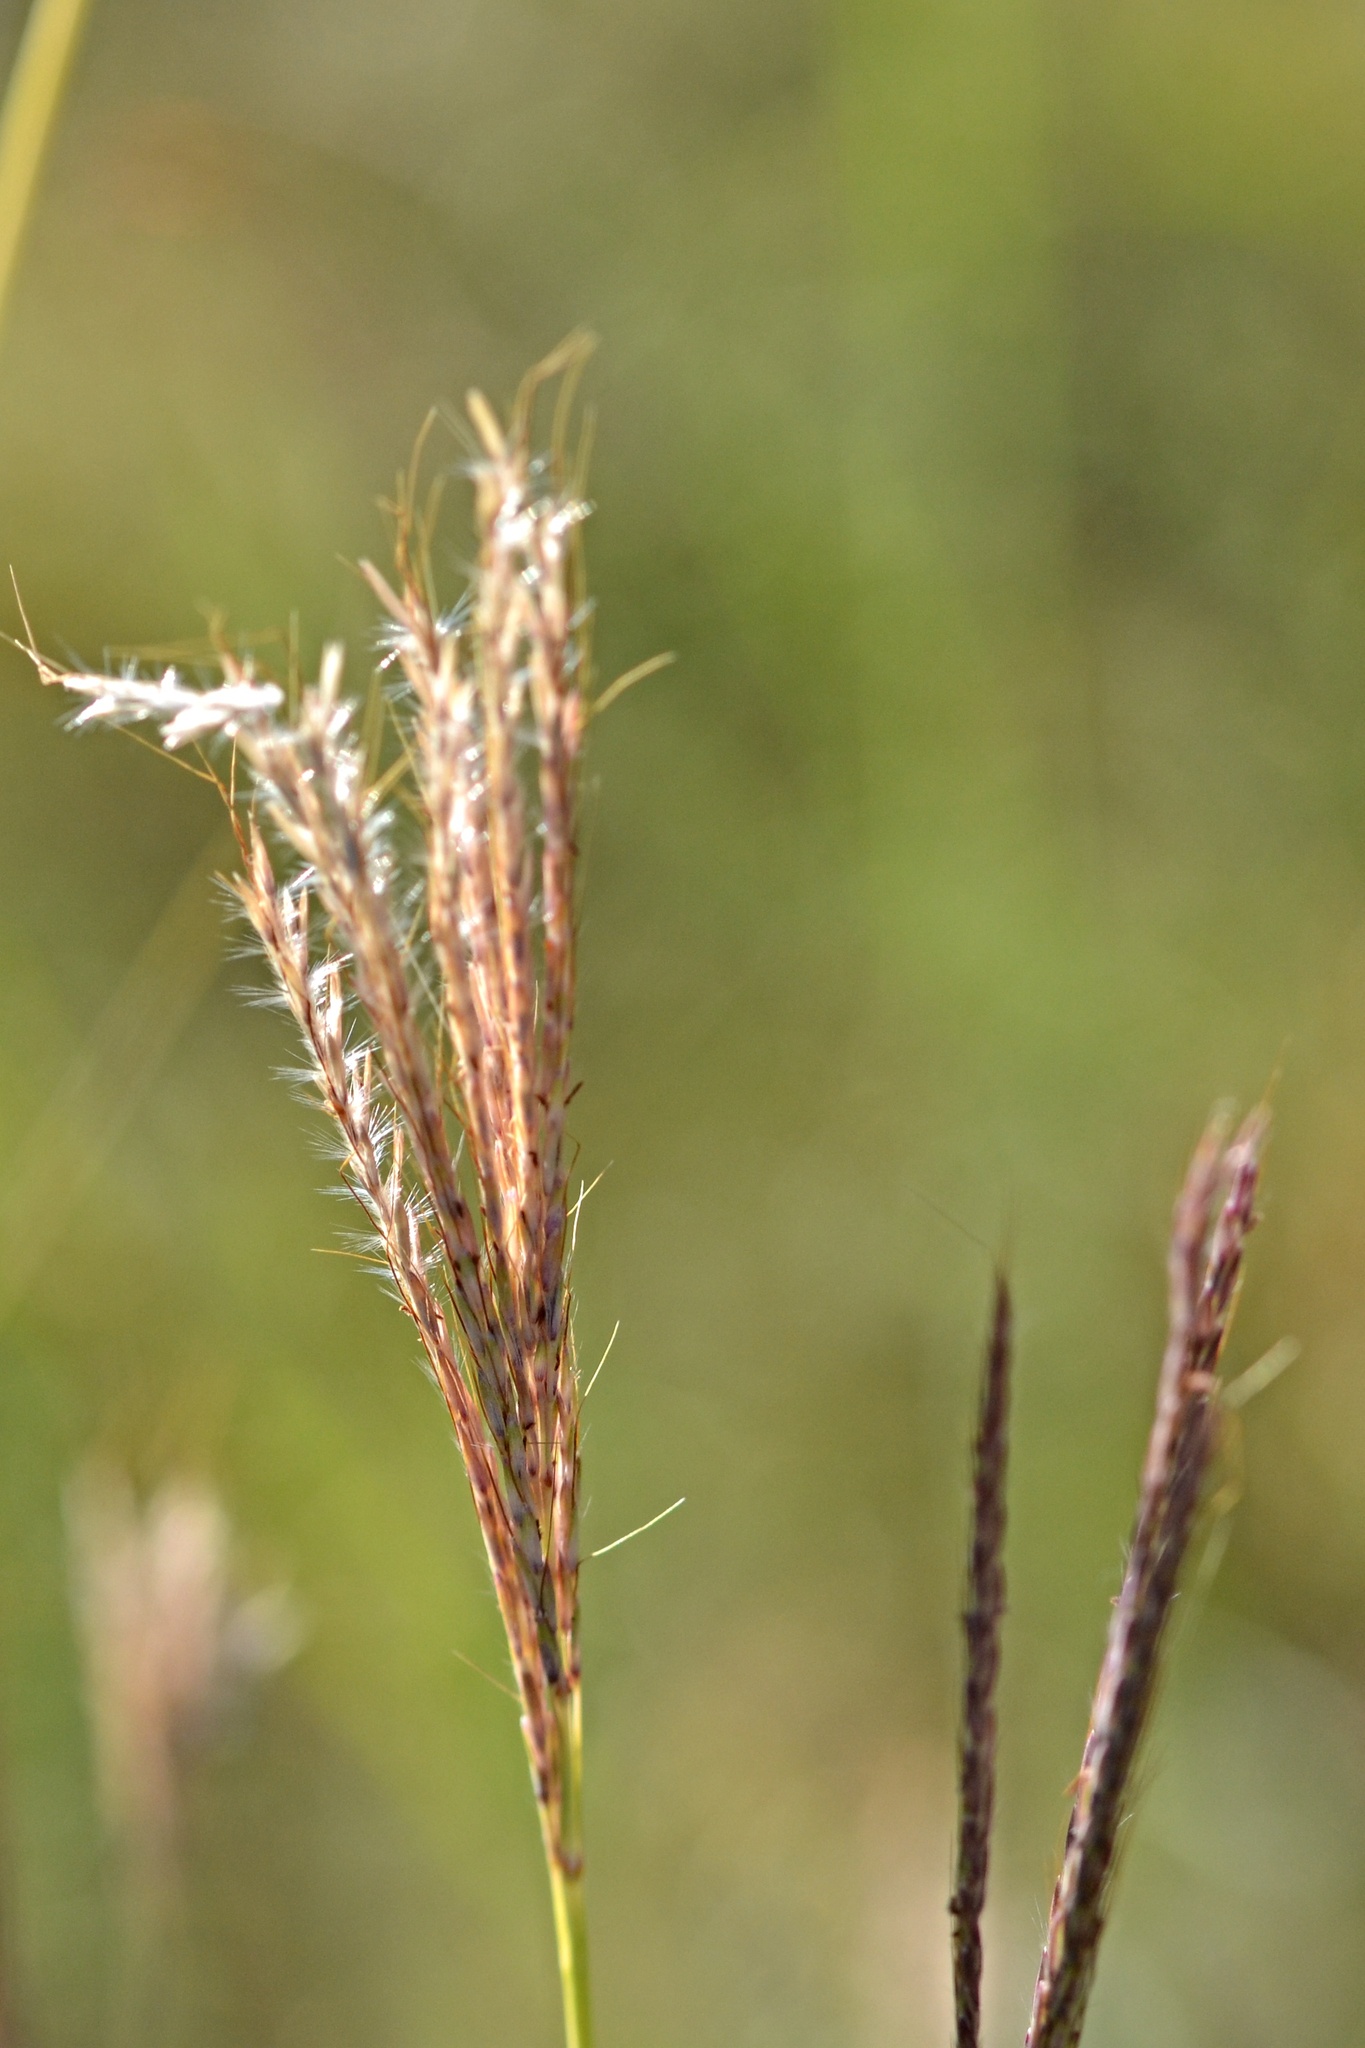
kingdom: Plantae
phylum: Tracheophyta
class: Liliopsida
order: Poales
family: Poaceae
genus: Bothriochloa
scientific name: Bothriochloa ischaemum
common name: Yellow bluestem
